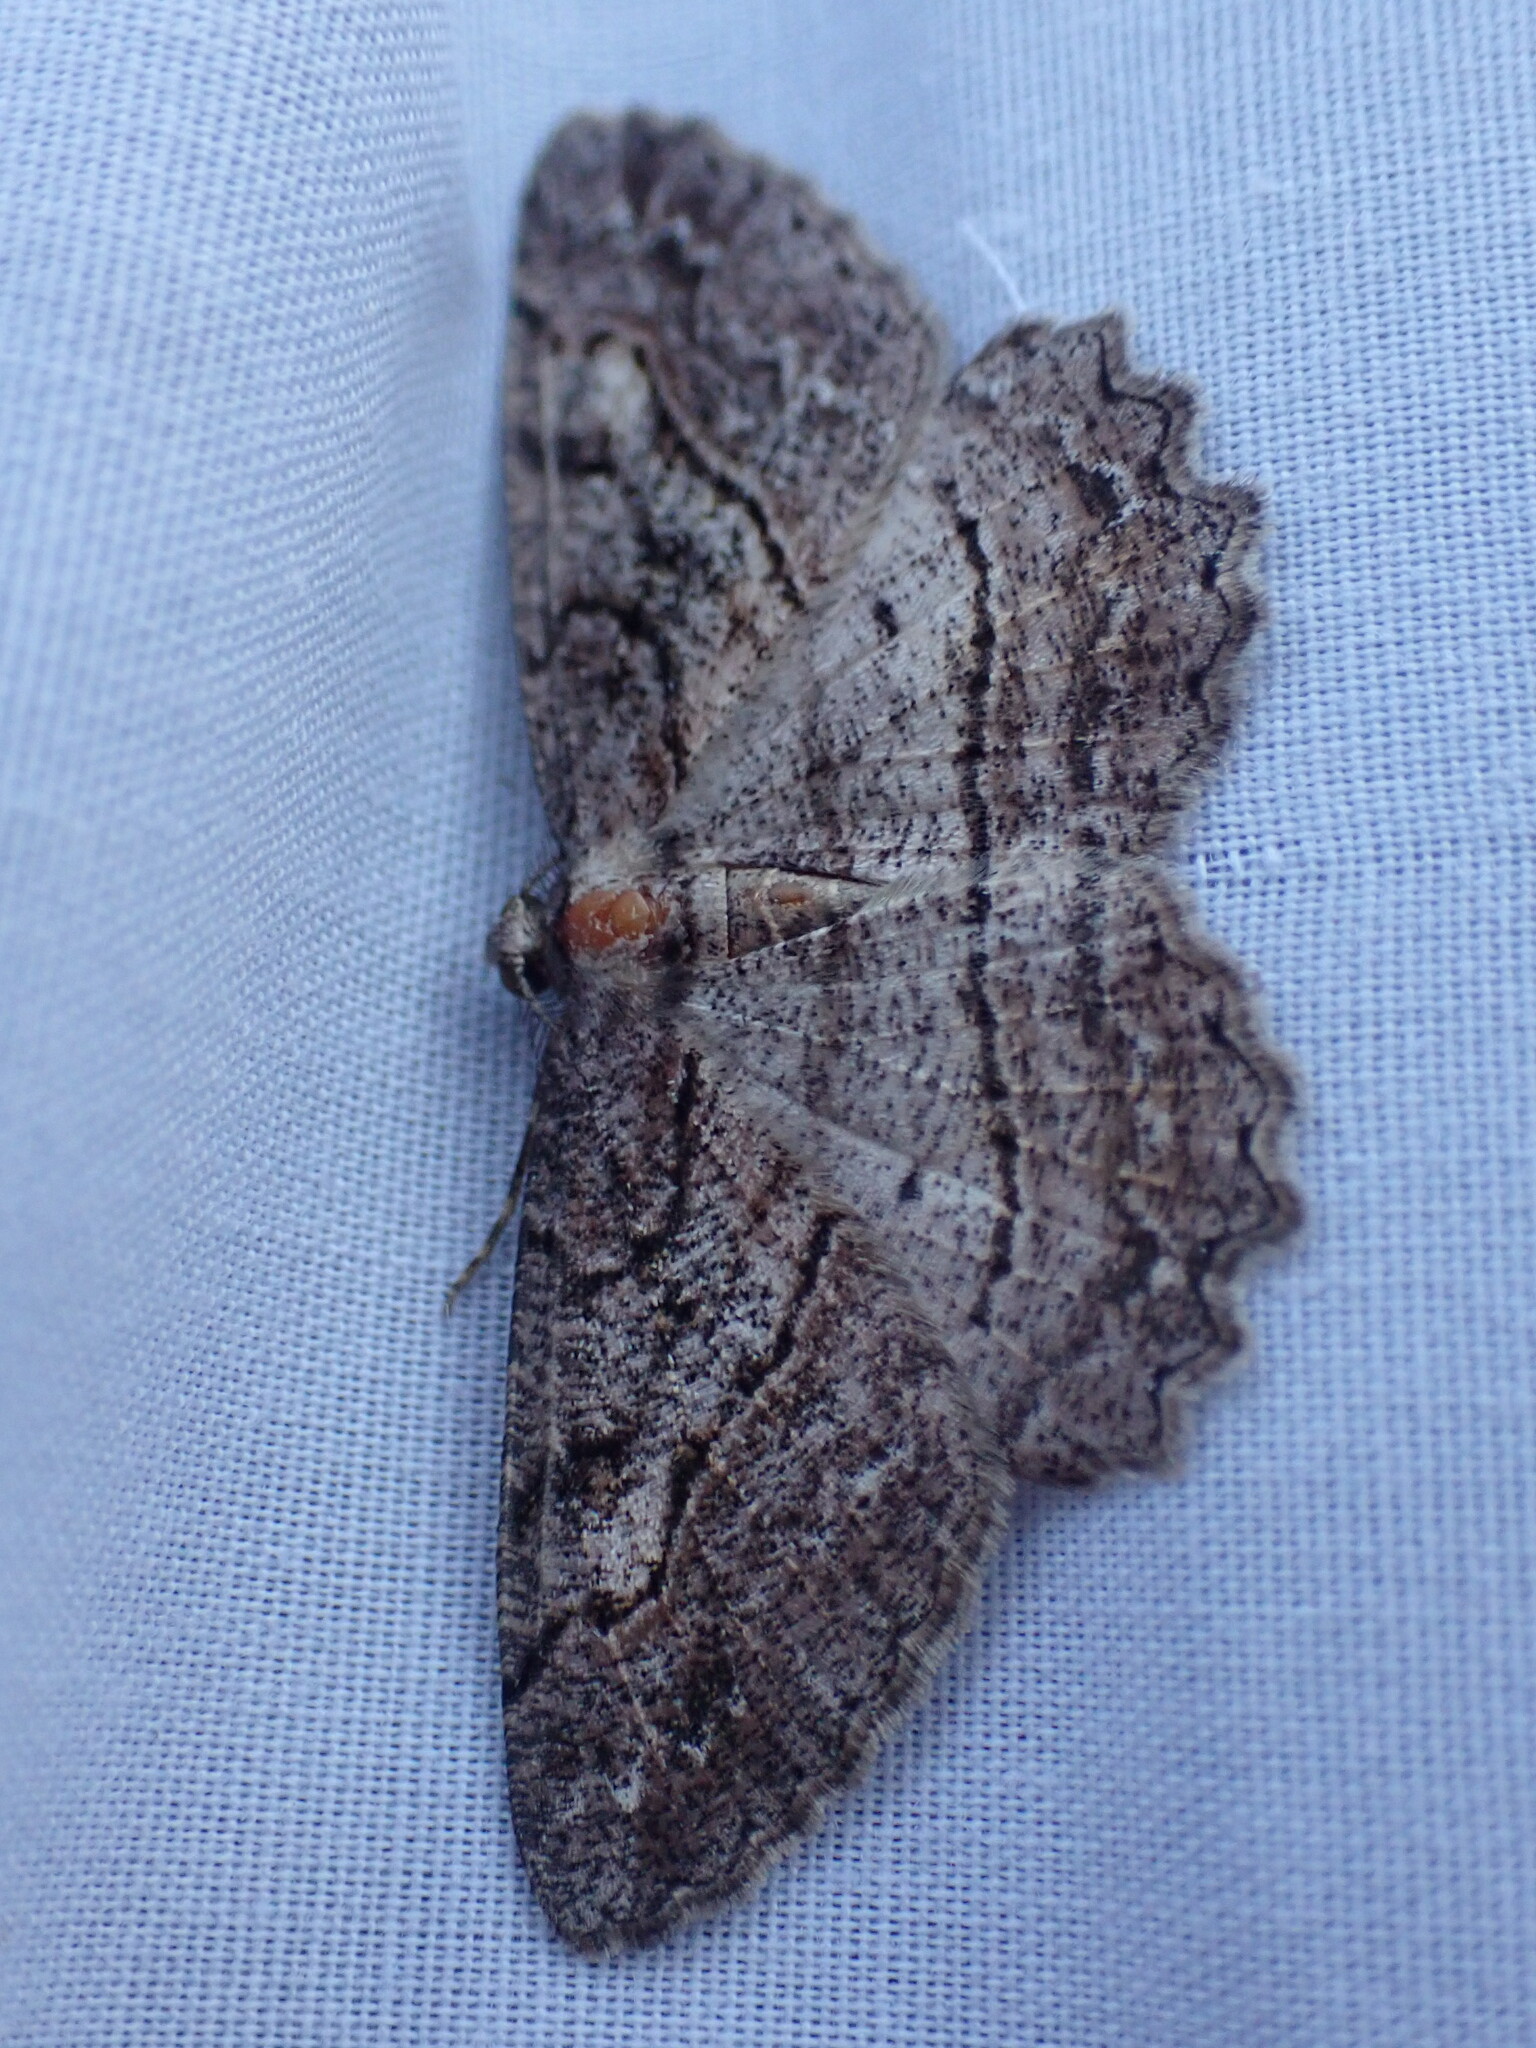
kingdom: Animalia
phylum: Arthropoda
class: Insecta
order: Lepidoptera
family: Geometridae
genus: Neoalcis
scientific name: Neoalcis californiaria
